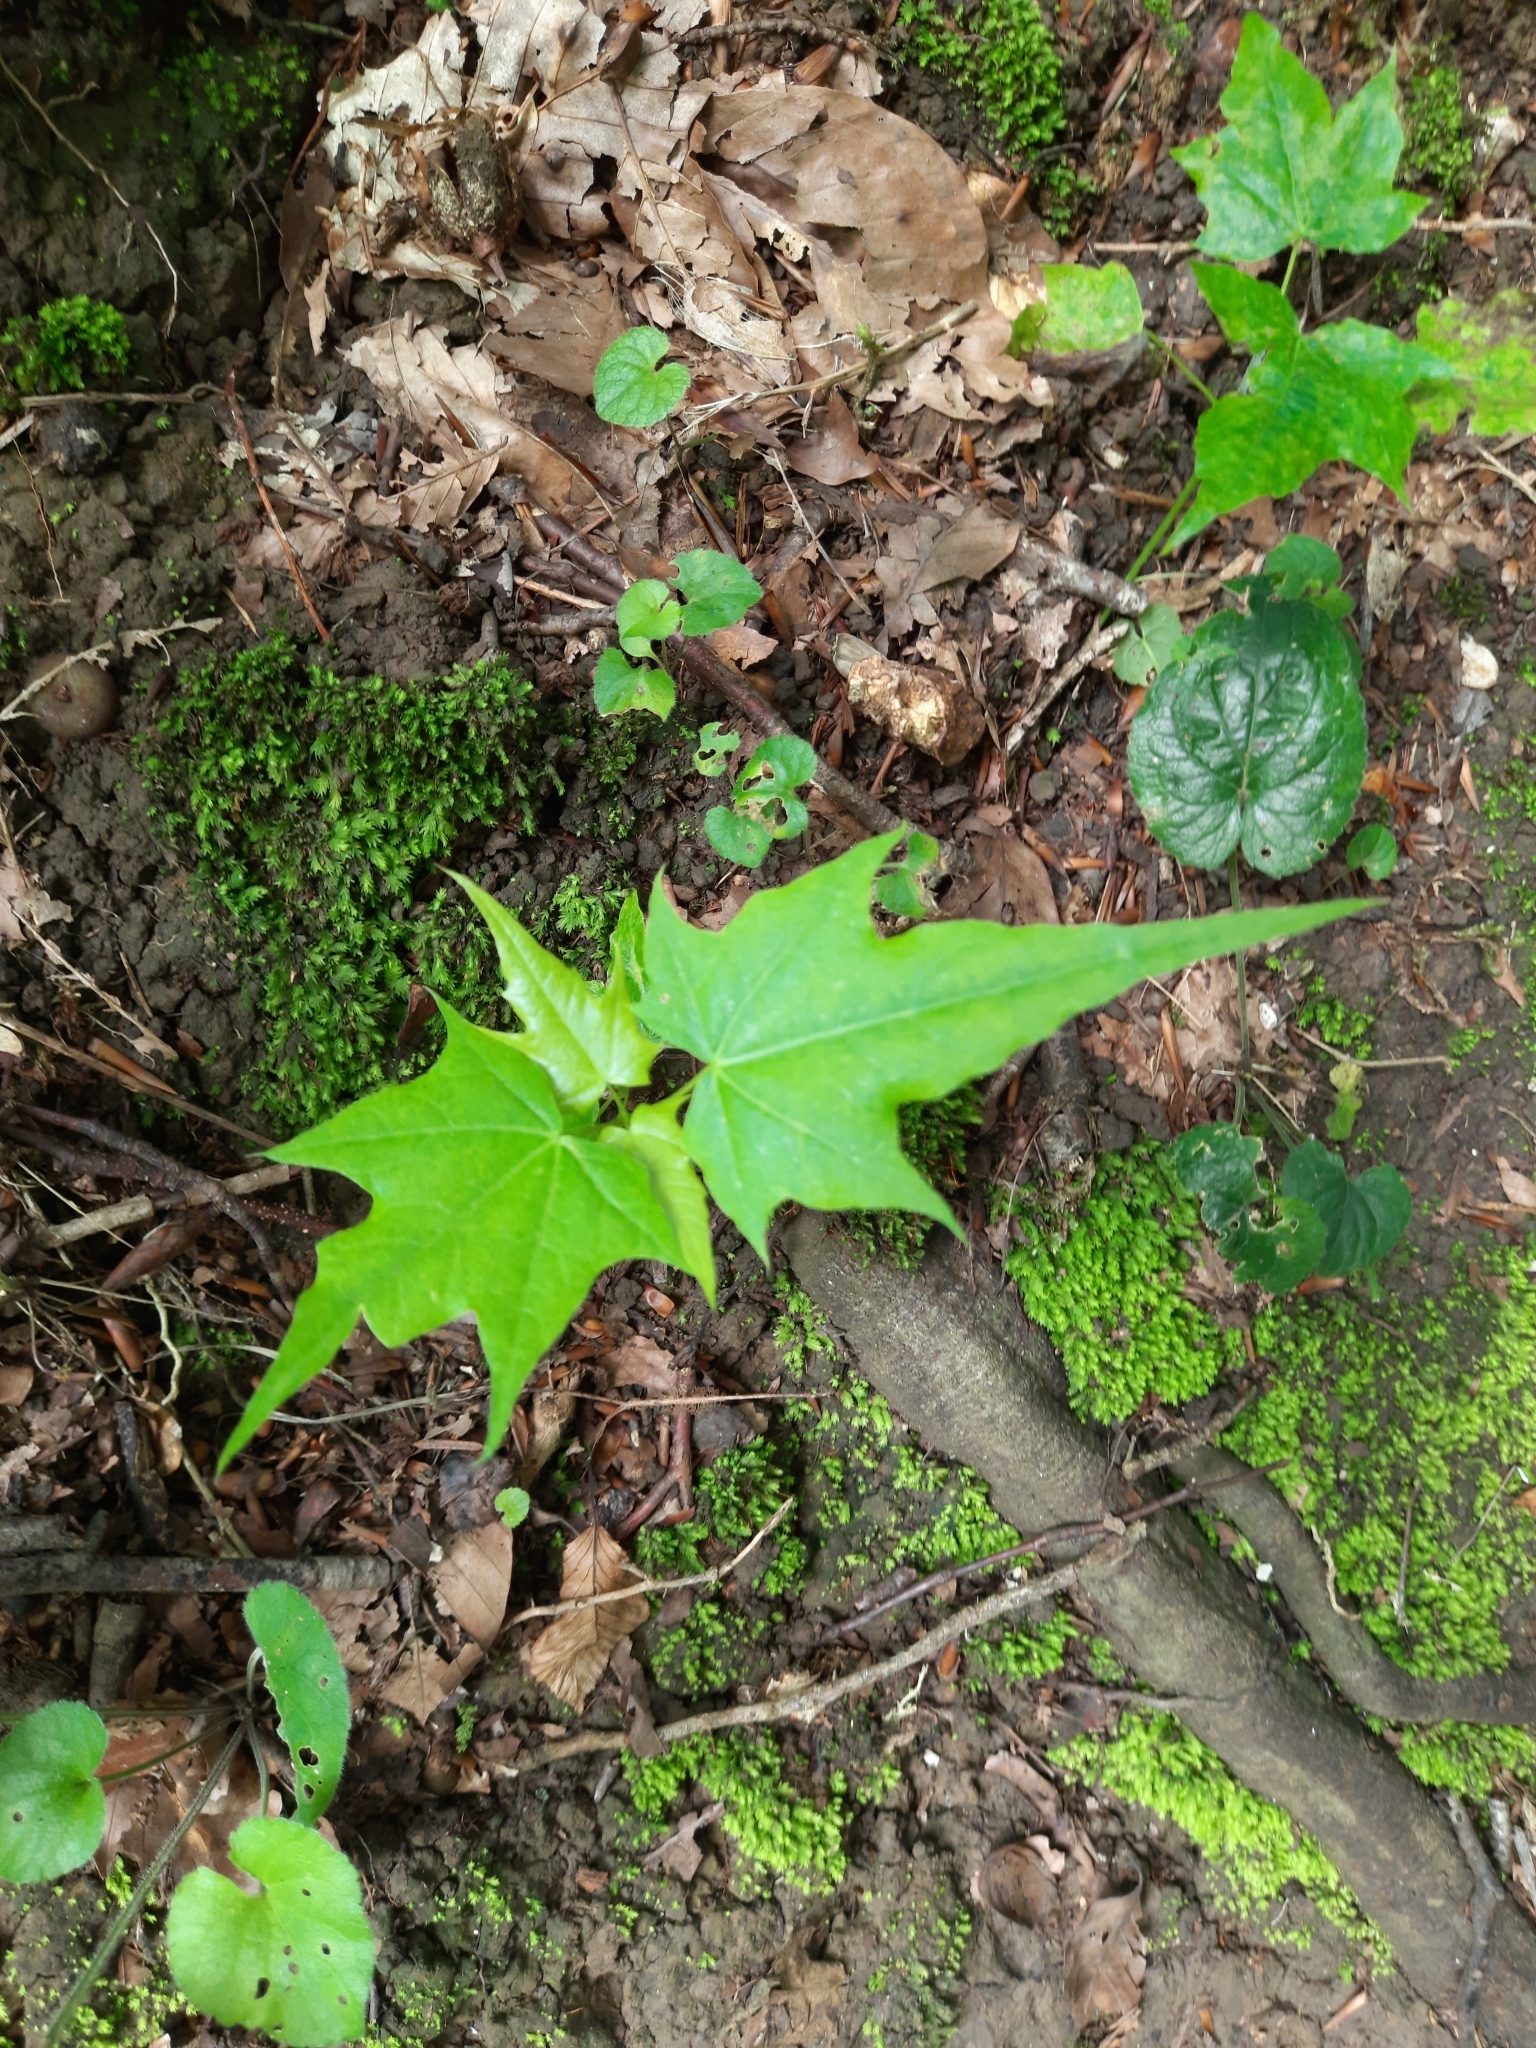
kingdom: Plantae
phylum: Tracheophyta
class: Magnoliopsida
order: Sapindales
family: Sapindaceae
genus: Acer
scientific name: Acer platanoides
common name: Norway maple
